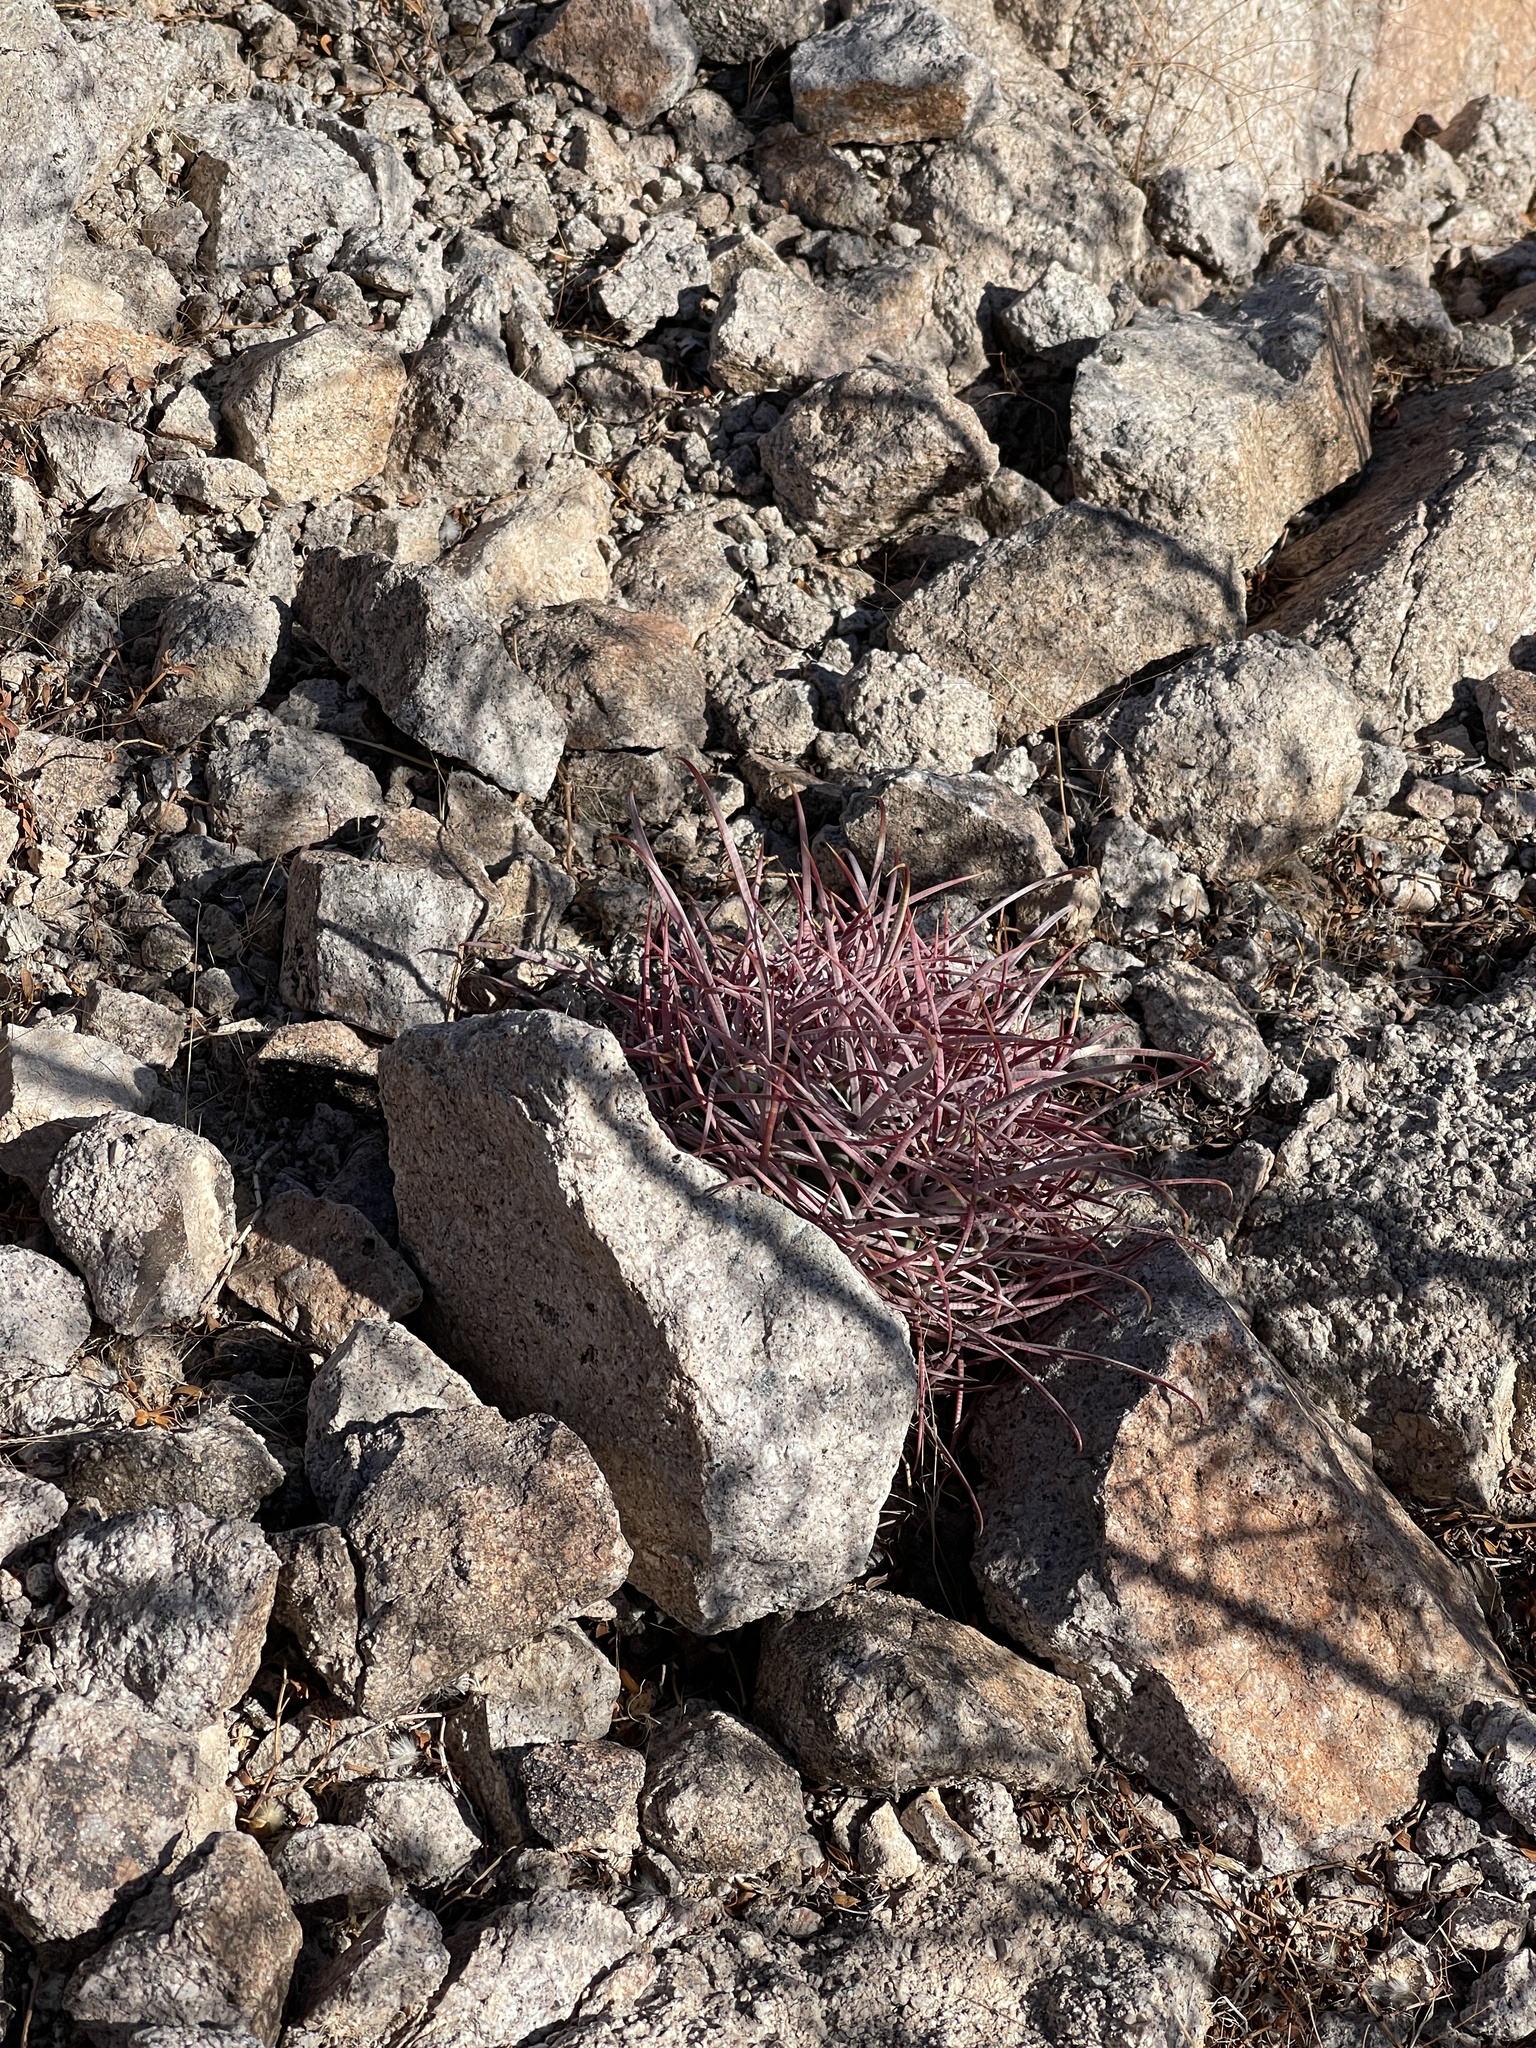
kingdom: Plantae
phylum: Tracheophyta
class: Magnoliopsida
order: Caryophyllales
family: Cactaceae
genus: Ferocactus
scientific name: Ferocactus cylindraceus
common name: California barrel cactus
